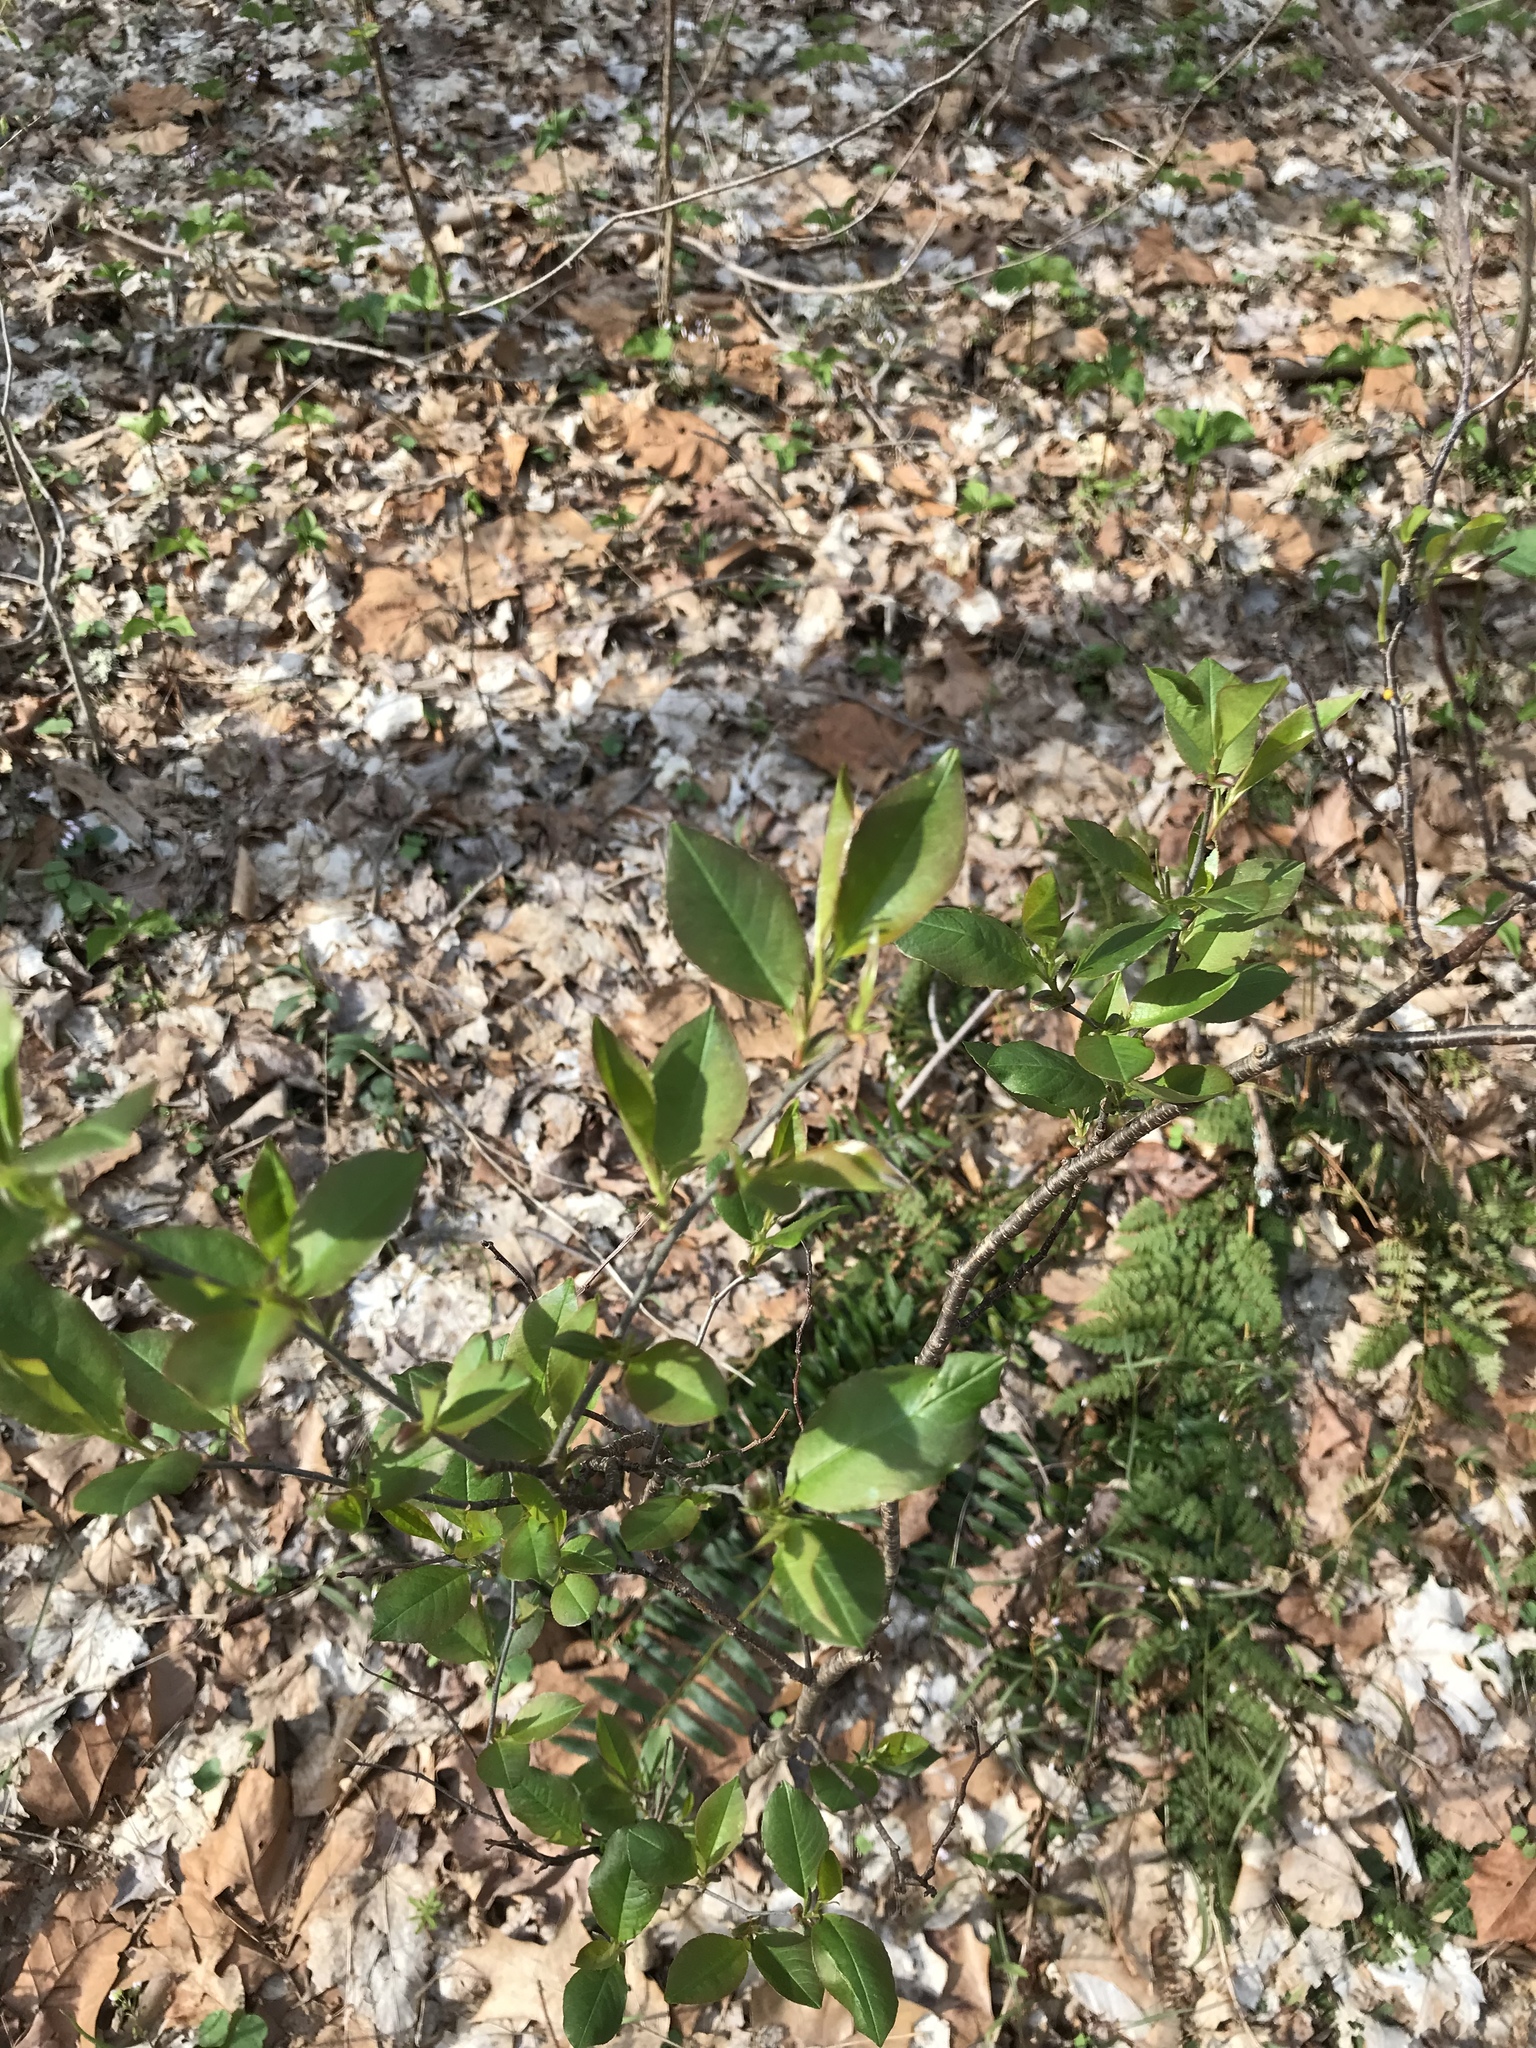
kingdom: Plantae
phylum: Tracheophyta
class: Magnoliopsida
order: Rosales
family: Rosaceae
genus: Prunus
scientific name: Prunus serotina
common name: Black cherry
